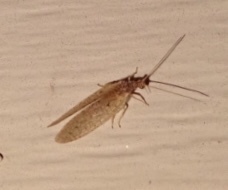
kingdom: Animalia
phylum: Arthropoda
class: Insecta
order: Neuroptera
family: Hemerobiidae
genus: Micromus
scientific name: Micromus subanticus
